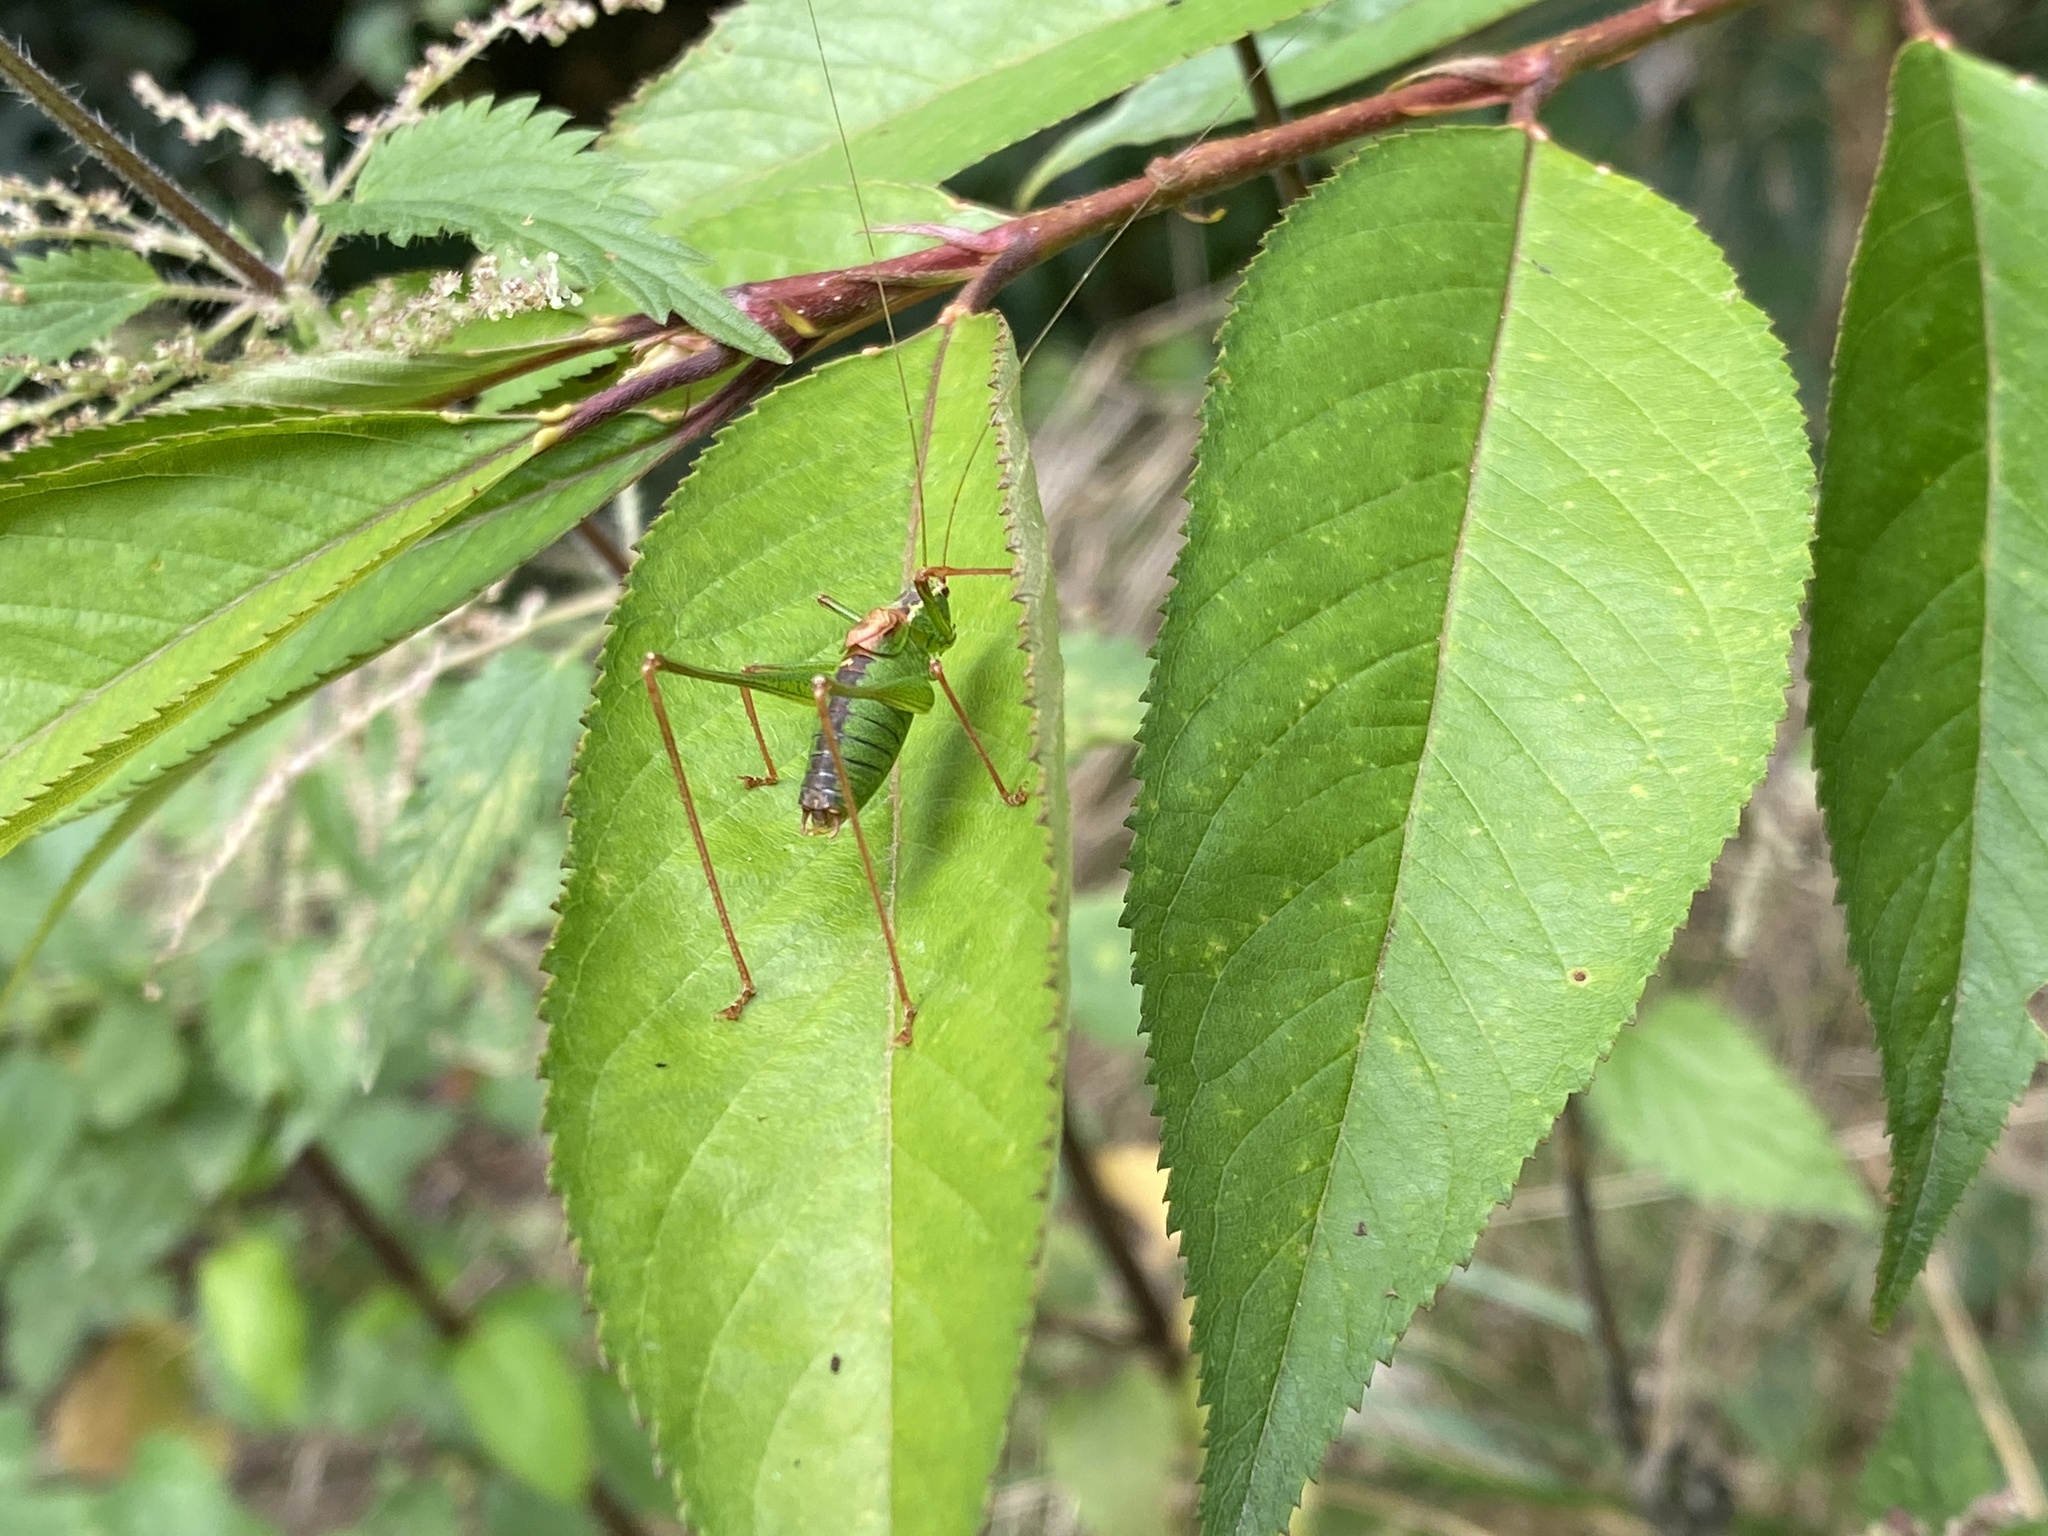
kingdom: Animalia
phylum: Arthropoda
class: Insecta
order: Orthoptera
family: Tettigoniidae
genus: Leptophyes
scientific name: Leptophyes punctatissima
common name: Speckled bush-cricket
